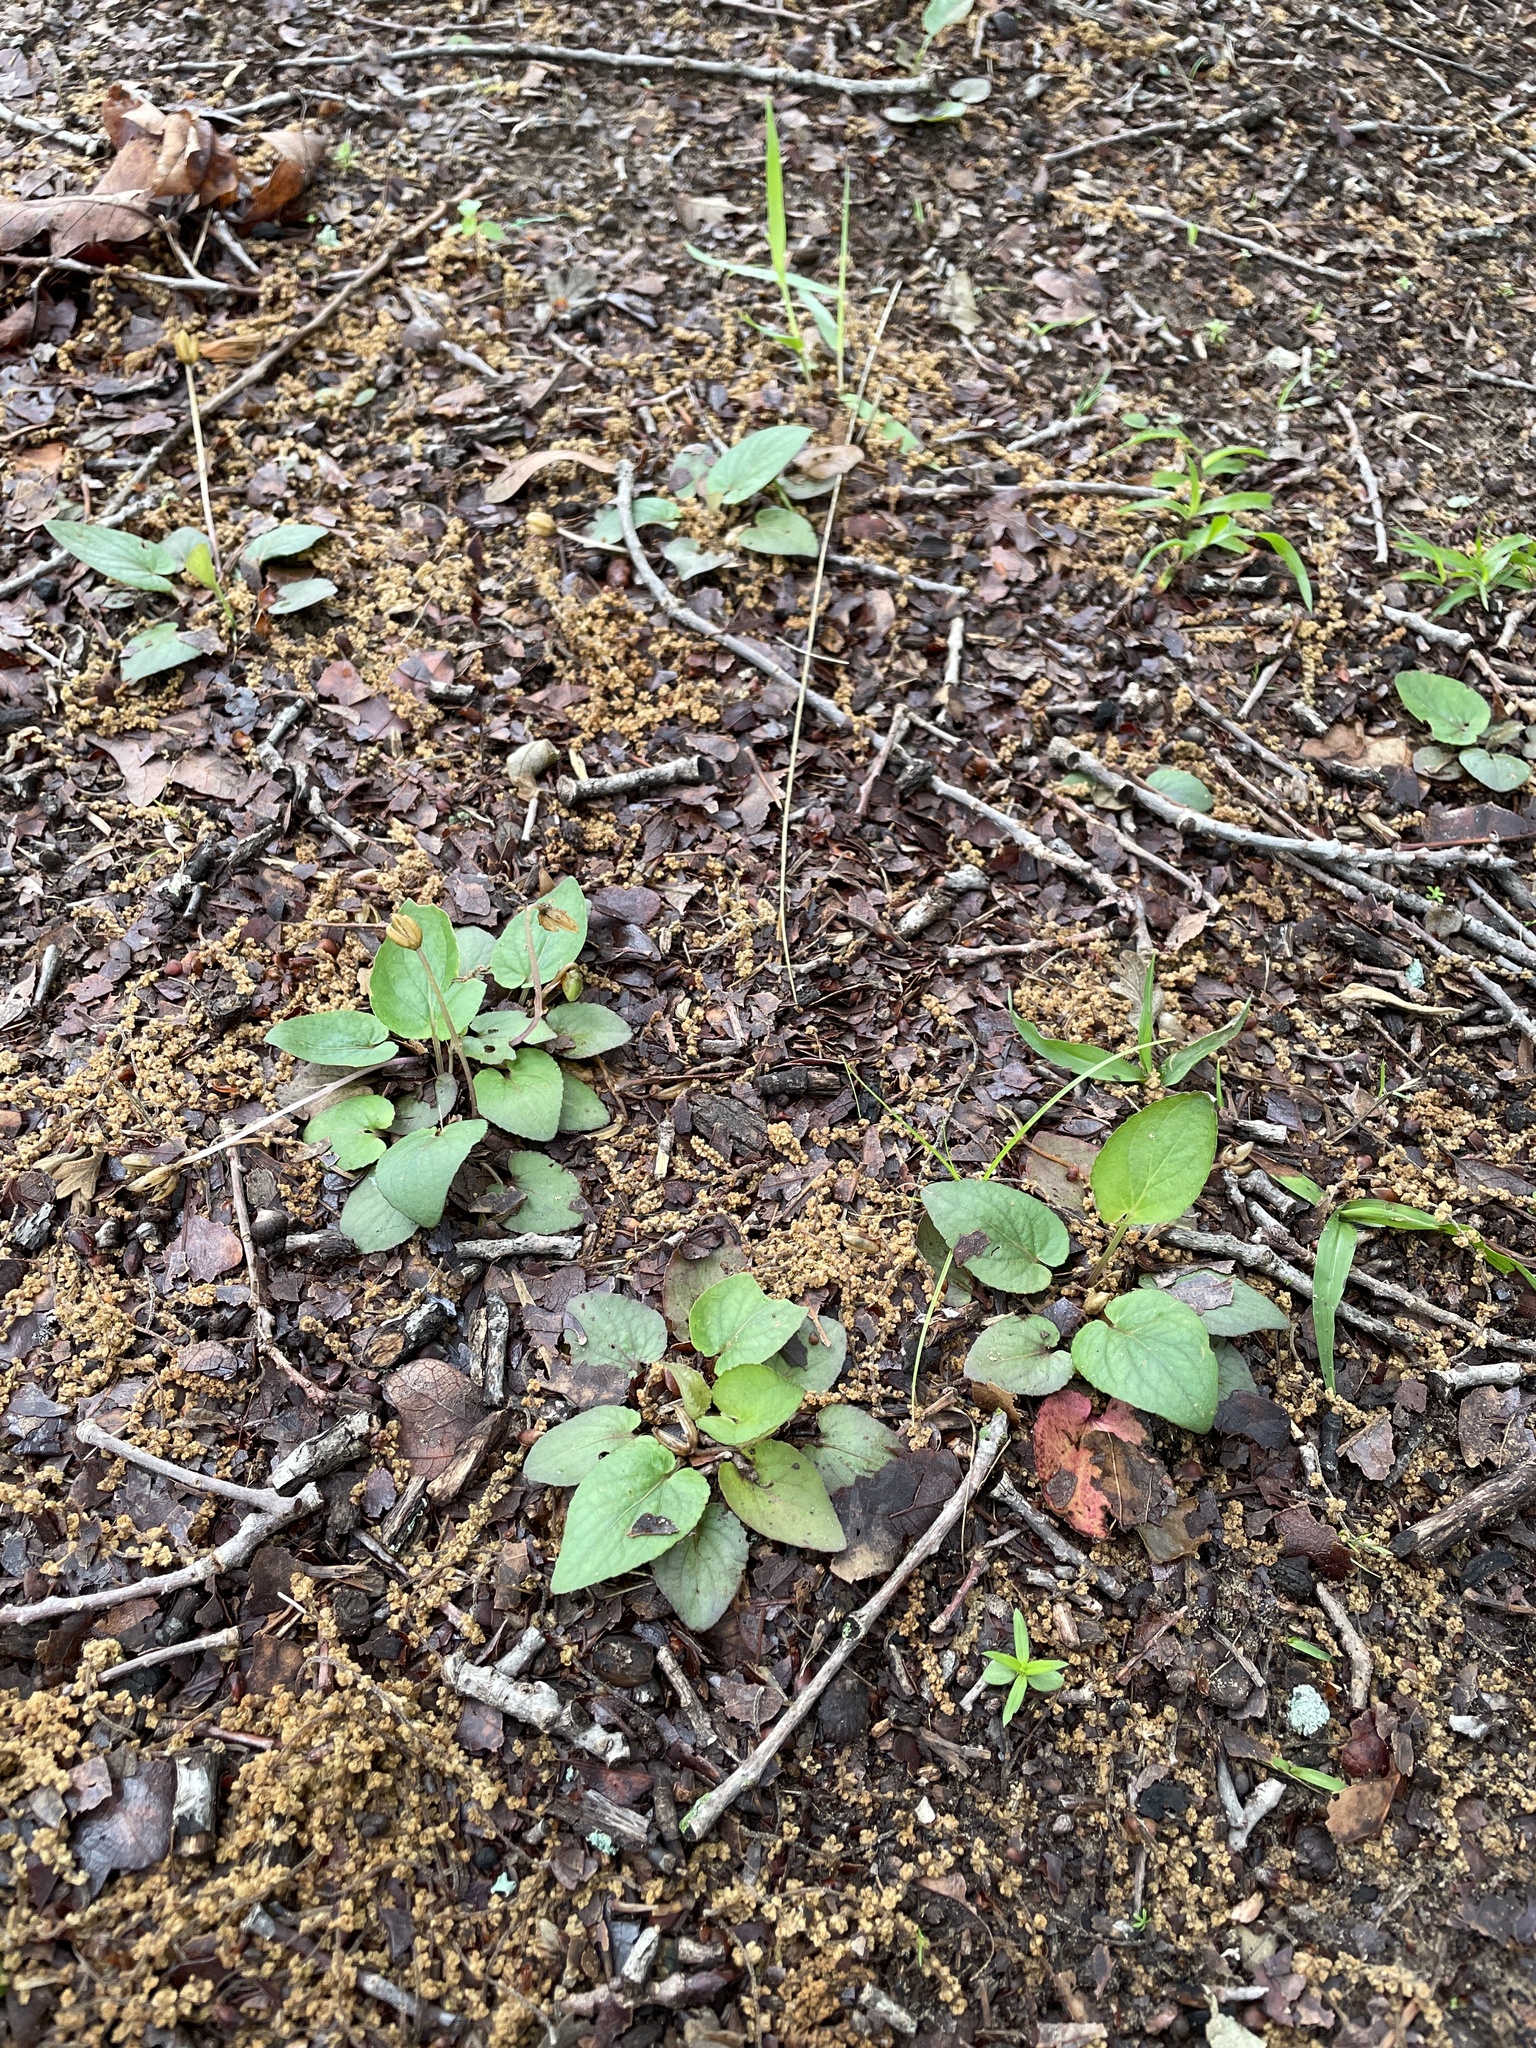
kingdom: Plantae
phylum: Tracheophyta
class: Magnoliopsida
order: Malpighiales
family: Violaceae
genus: Viola
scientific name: Viola villosa
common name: Carolina violet
